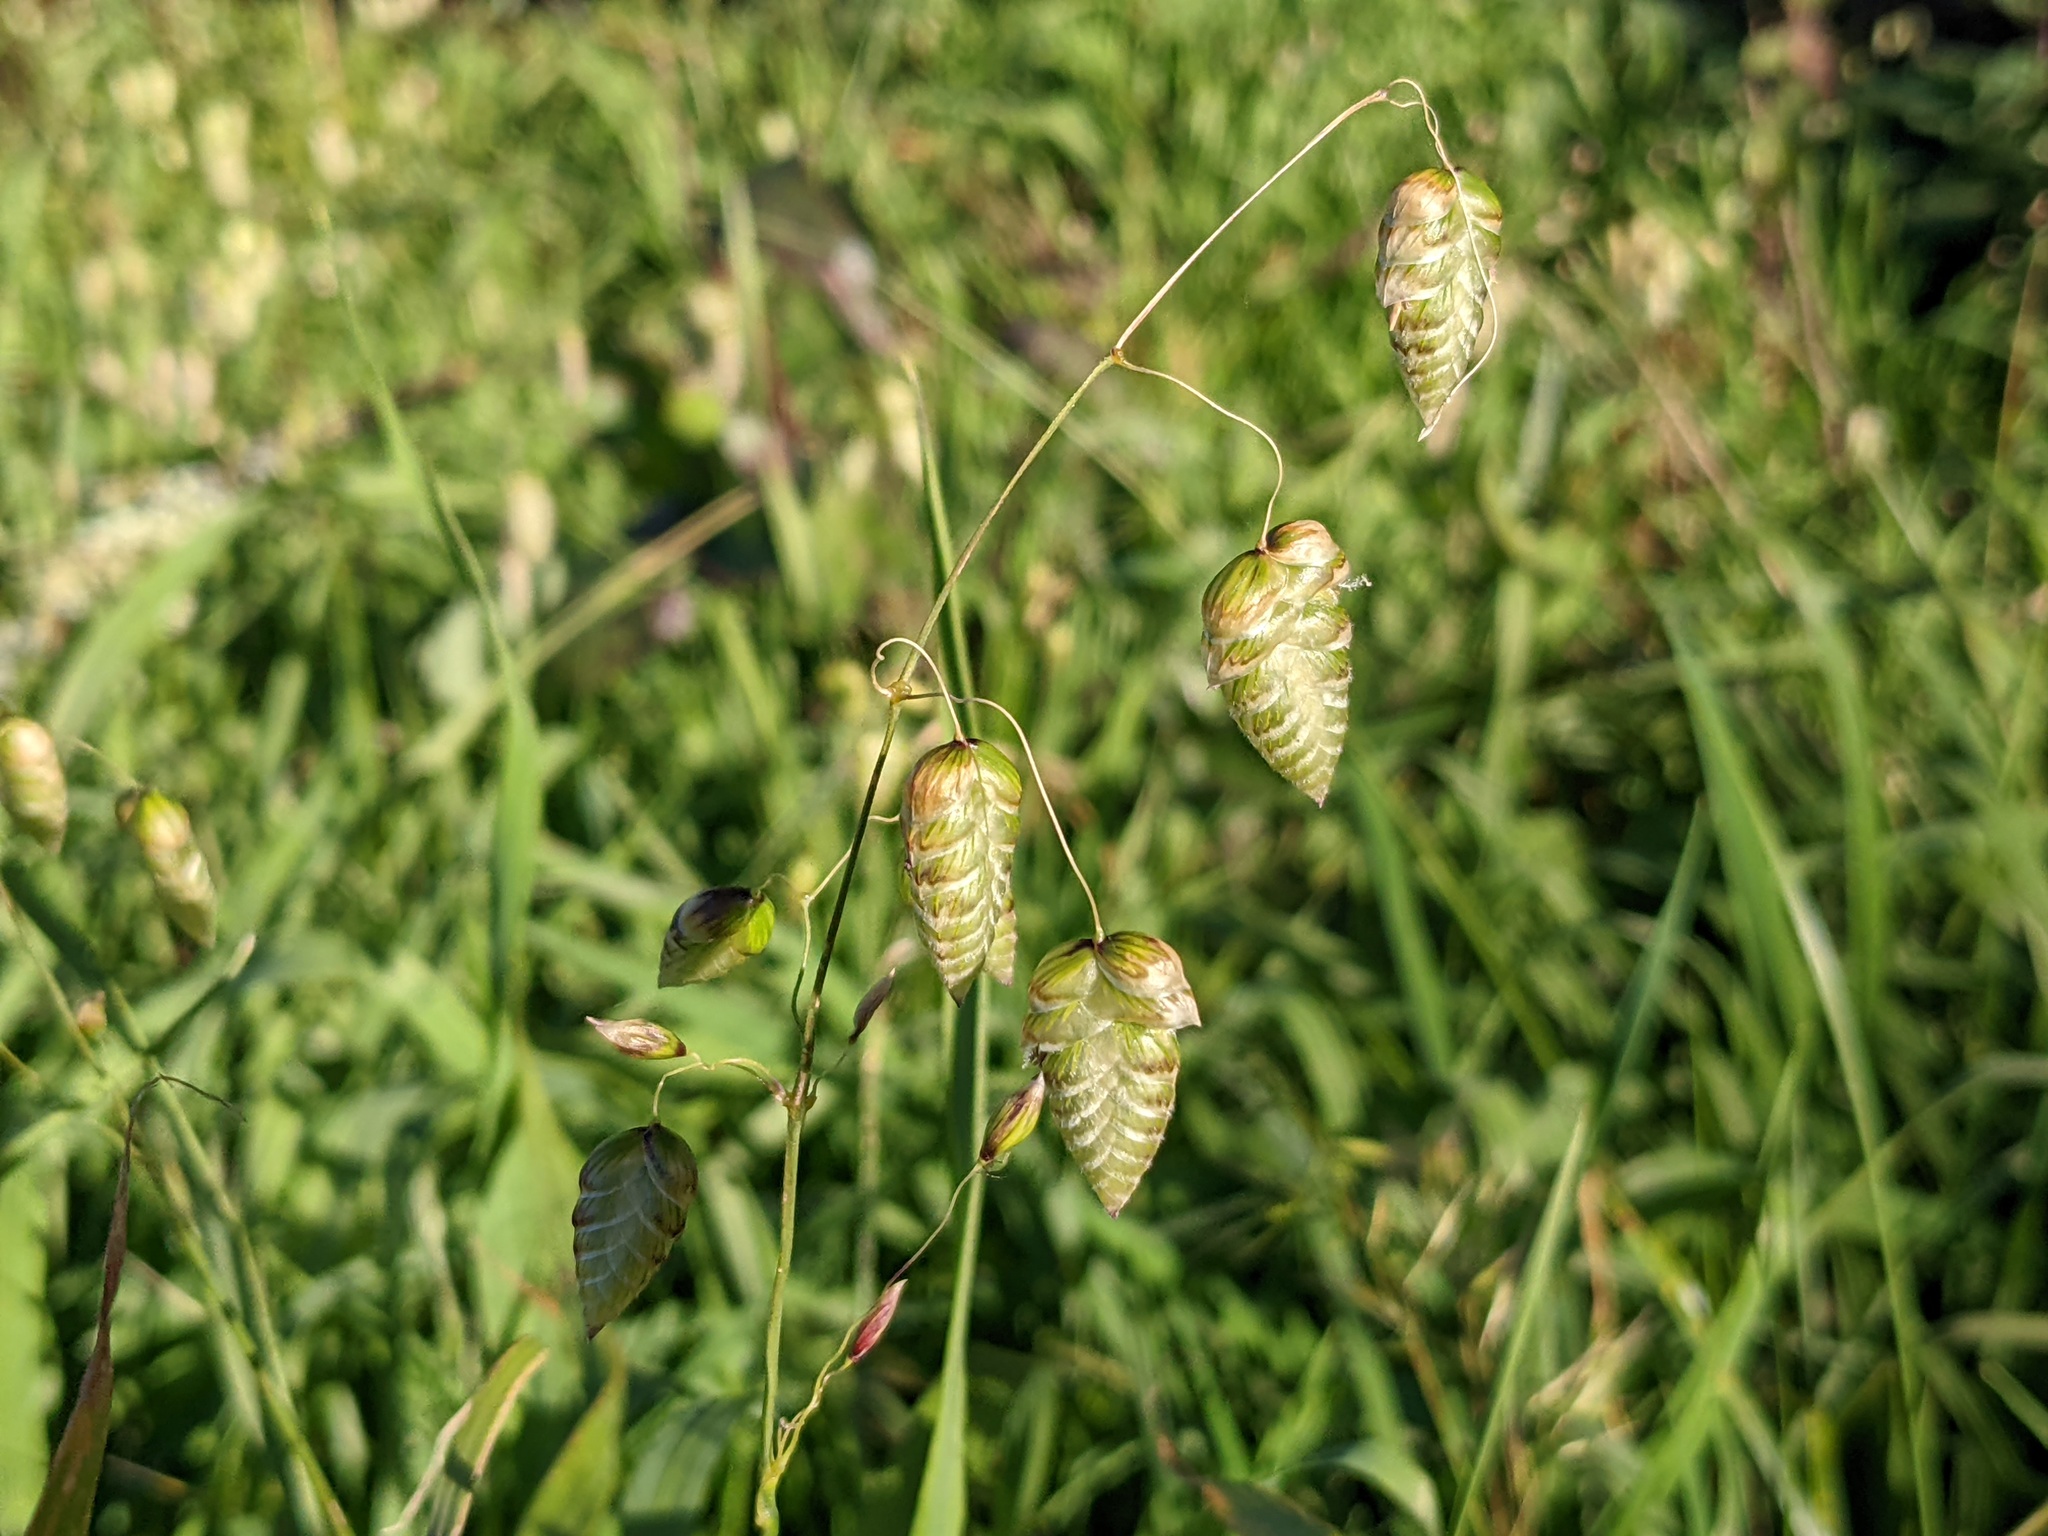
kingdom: Plantae
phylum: Tracheophyta
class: Liliopsida
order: Poales
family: Poaceae
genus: Briza
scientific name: Briza maxima
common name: Big quakinggrass
